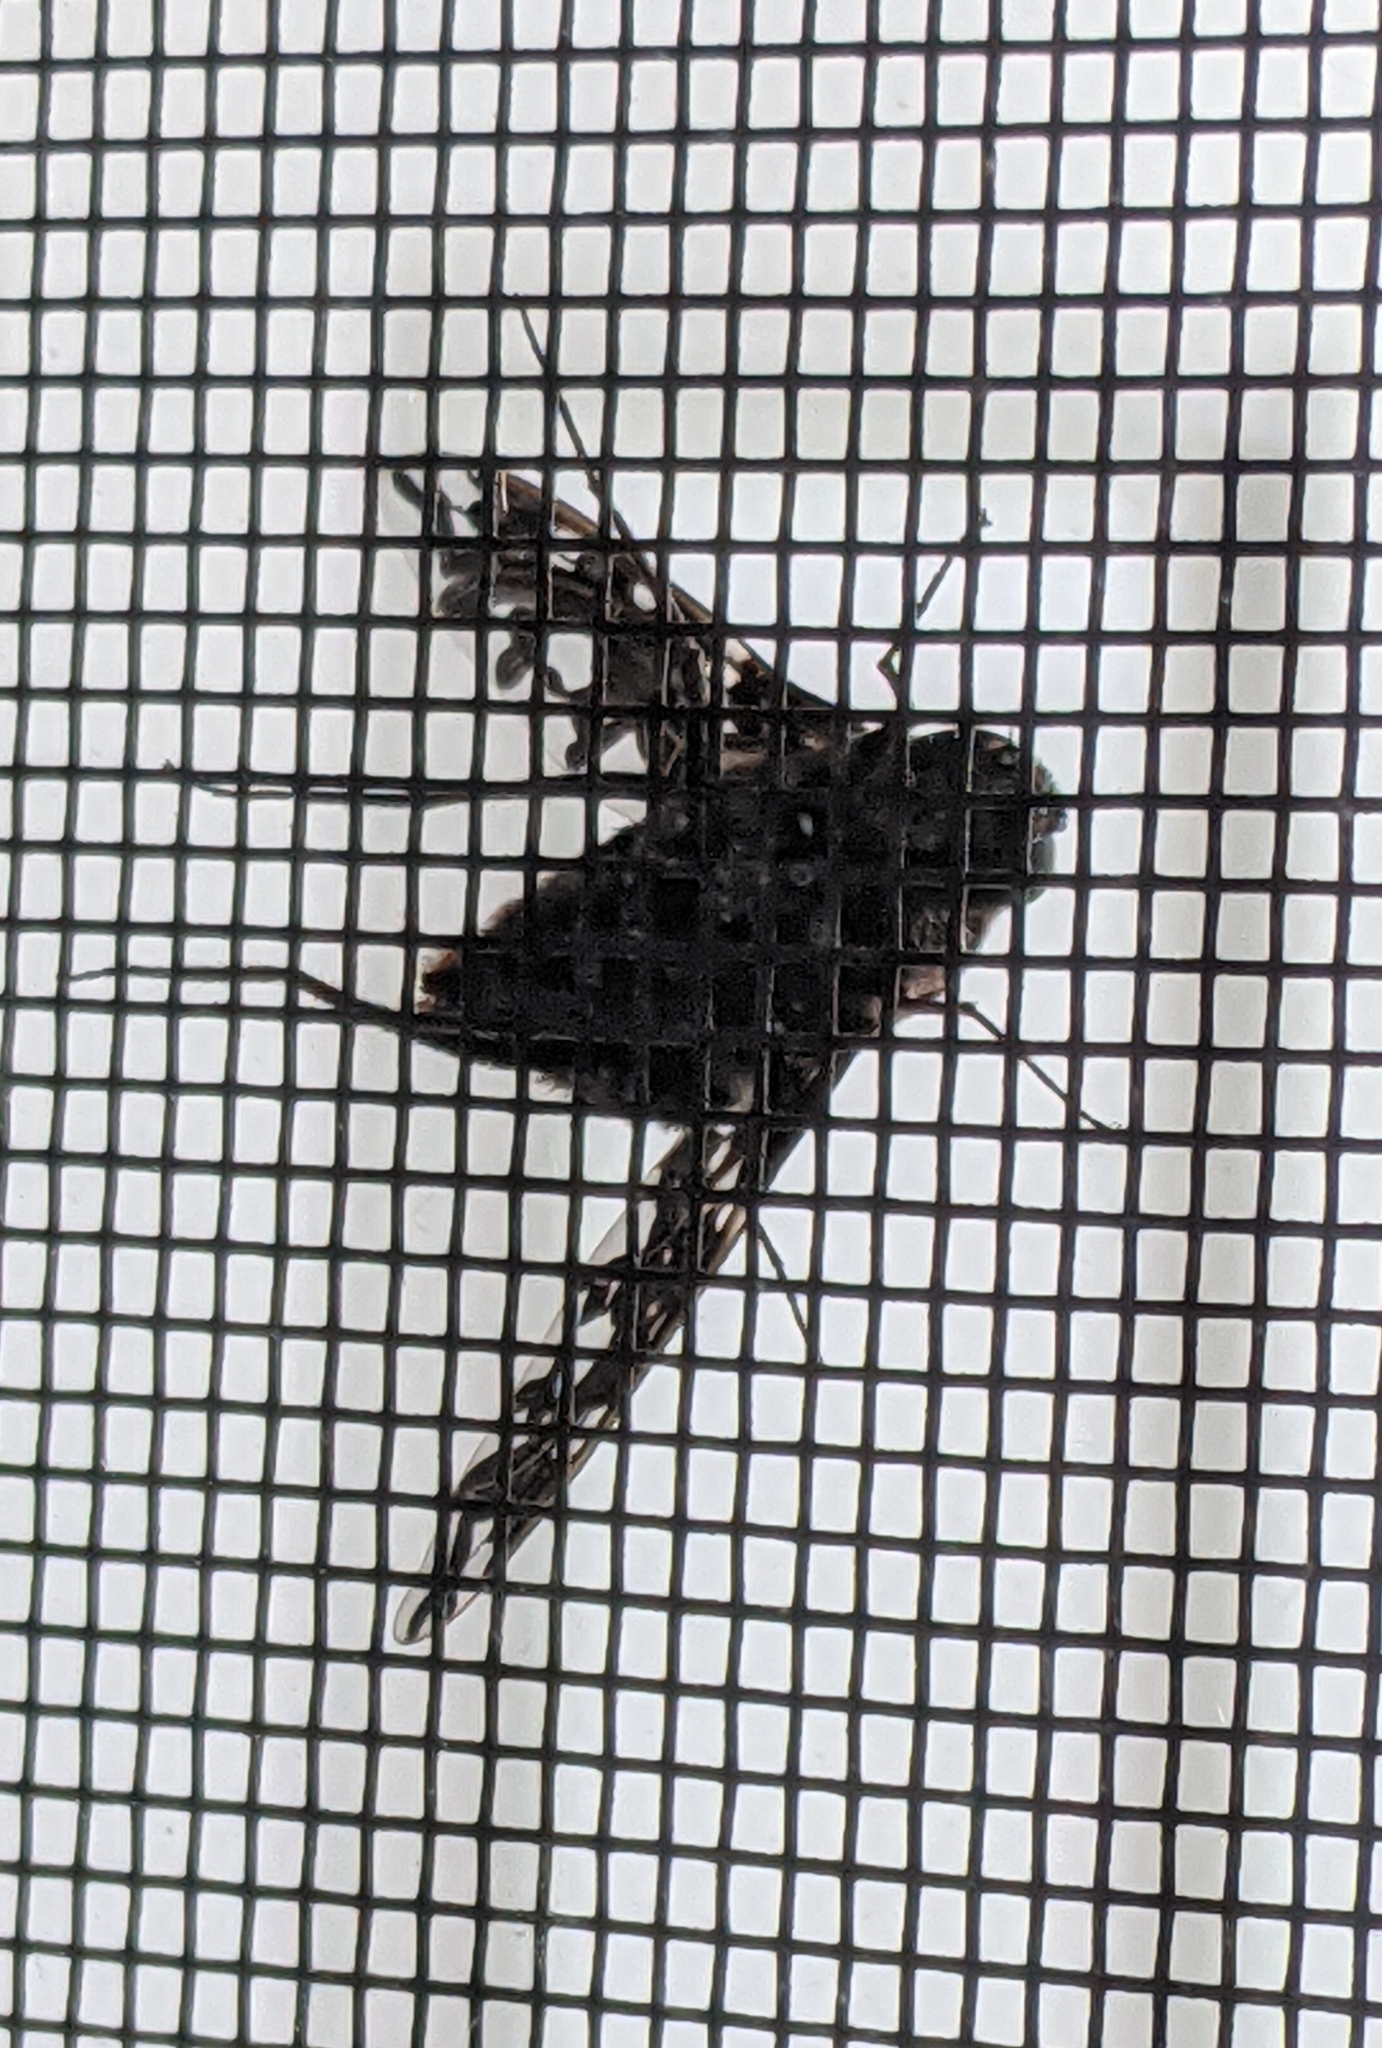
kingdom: Animalia
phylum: Arthropoda
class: Insecta
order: Diptera
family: Bombyliidae
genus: Xenox
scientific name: Xenox tigrinus
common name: Tiger bee fly
